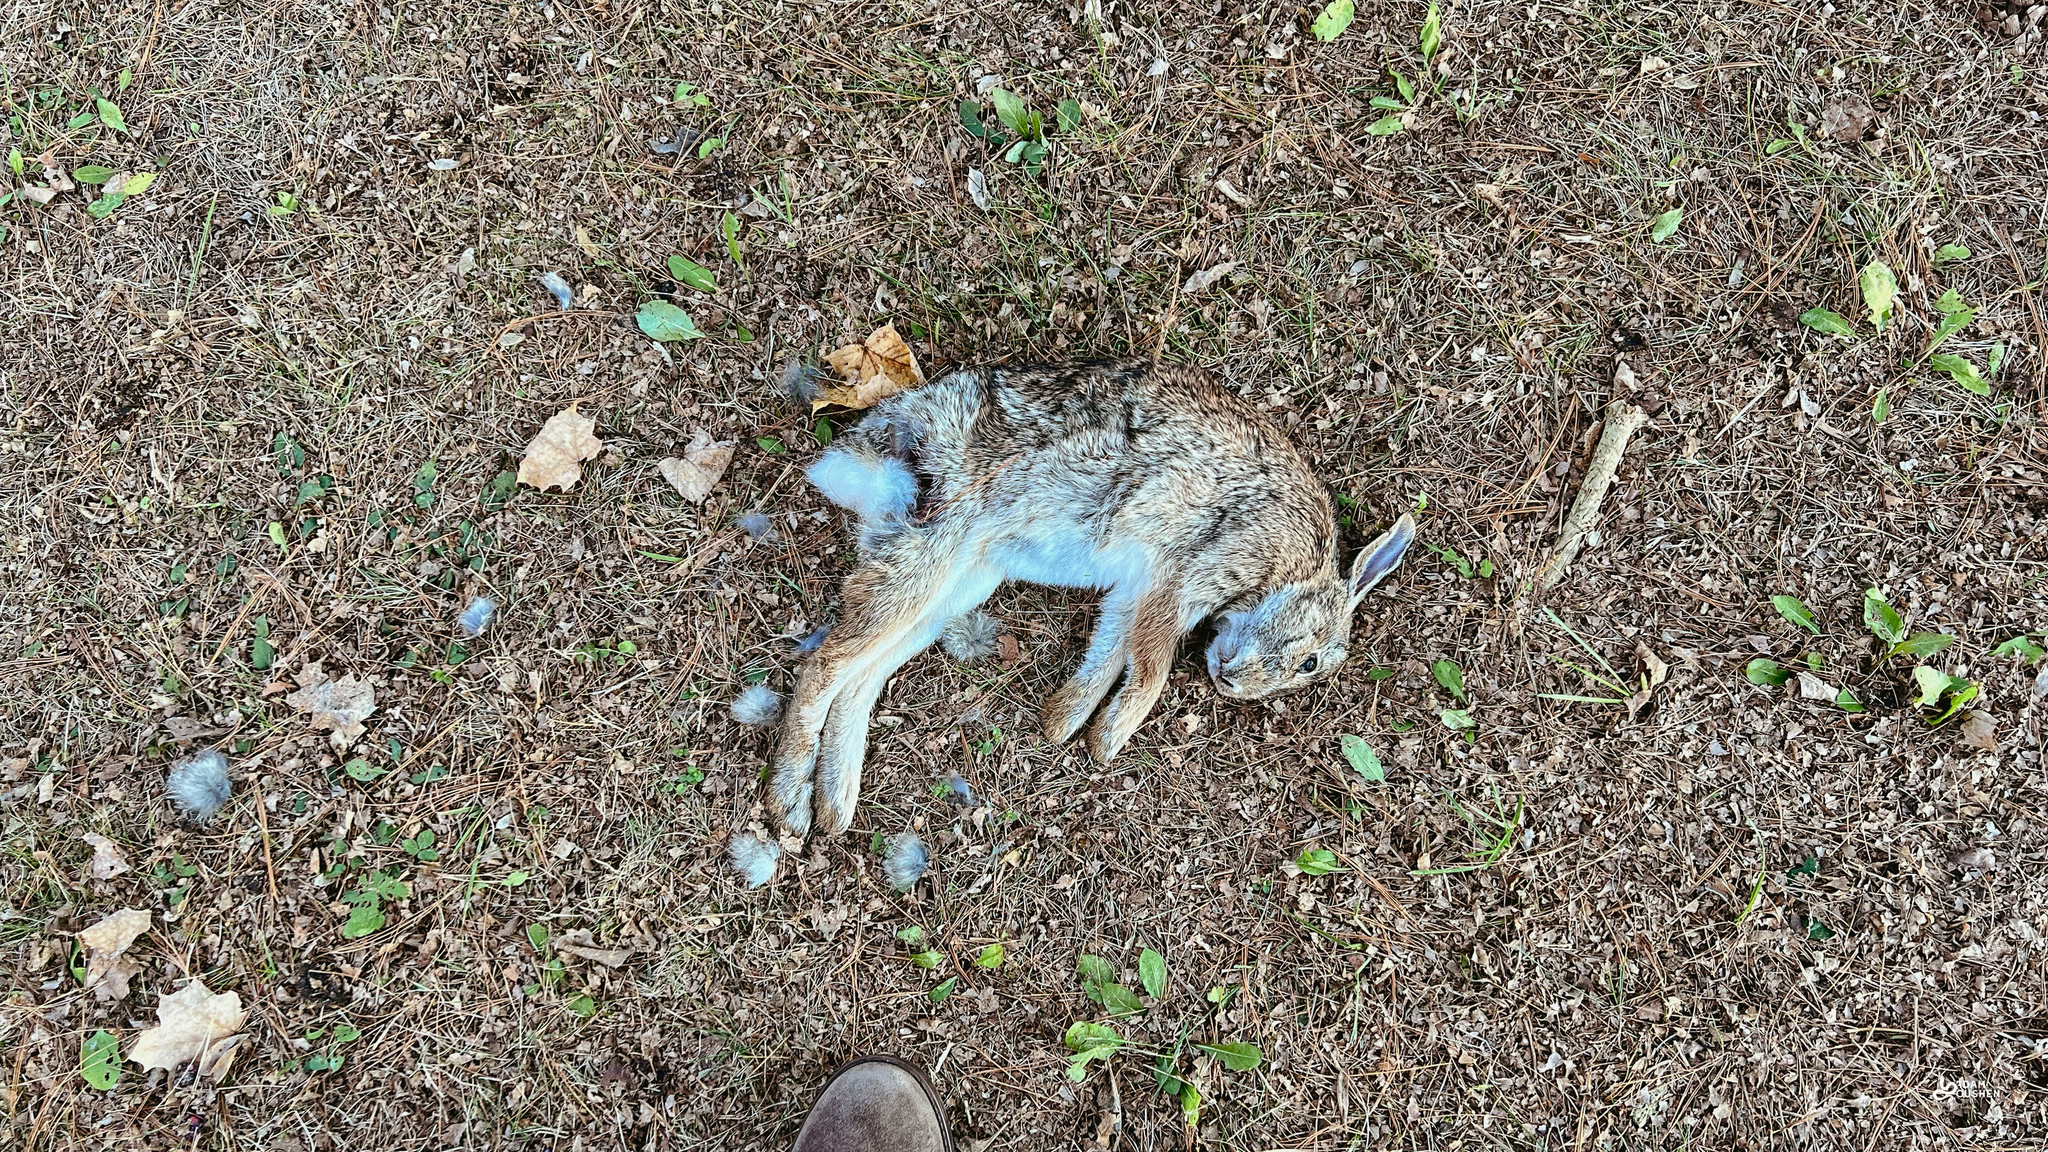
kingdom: Animalia
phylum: Chordata
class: Mammalia
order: Lagomorpha
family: Leporidae
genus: Sylvilagus
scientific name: Sylvilagus floridanus
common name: Eastern cottontail
